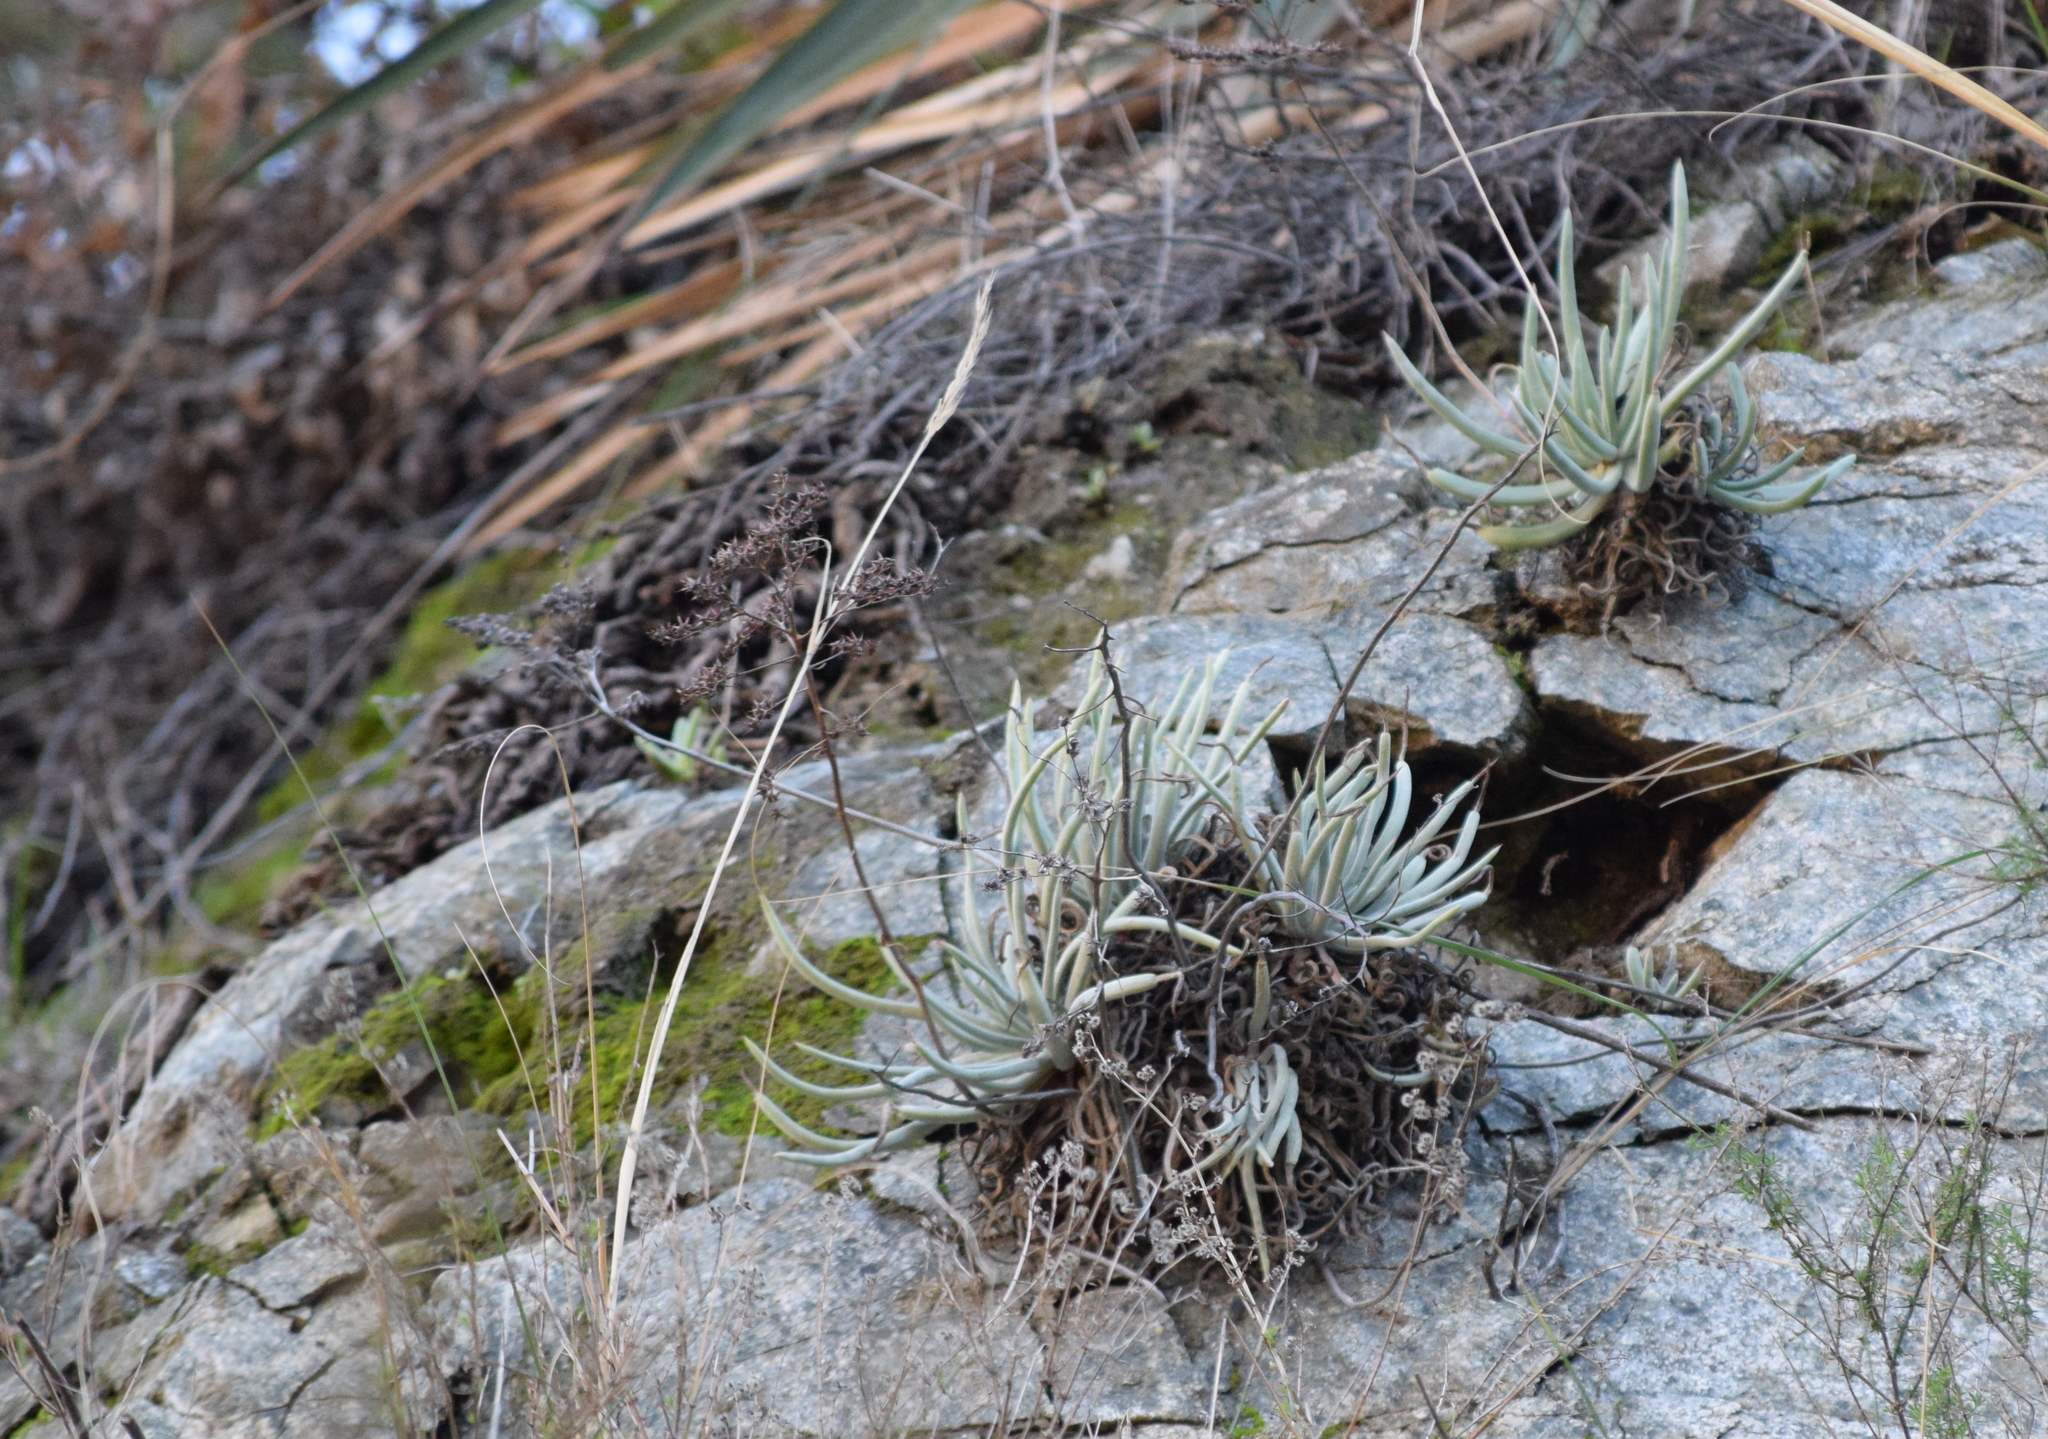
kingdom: Plantae
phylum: Tracheophyta
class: Magnoliopsida
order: Saxifragales
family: Crassulaceae
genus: Dudleya
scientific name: Dudleya densiflora
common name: San gabriel mountains dudleya
